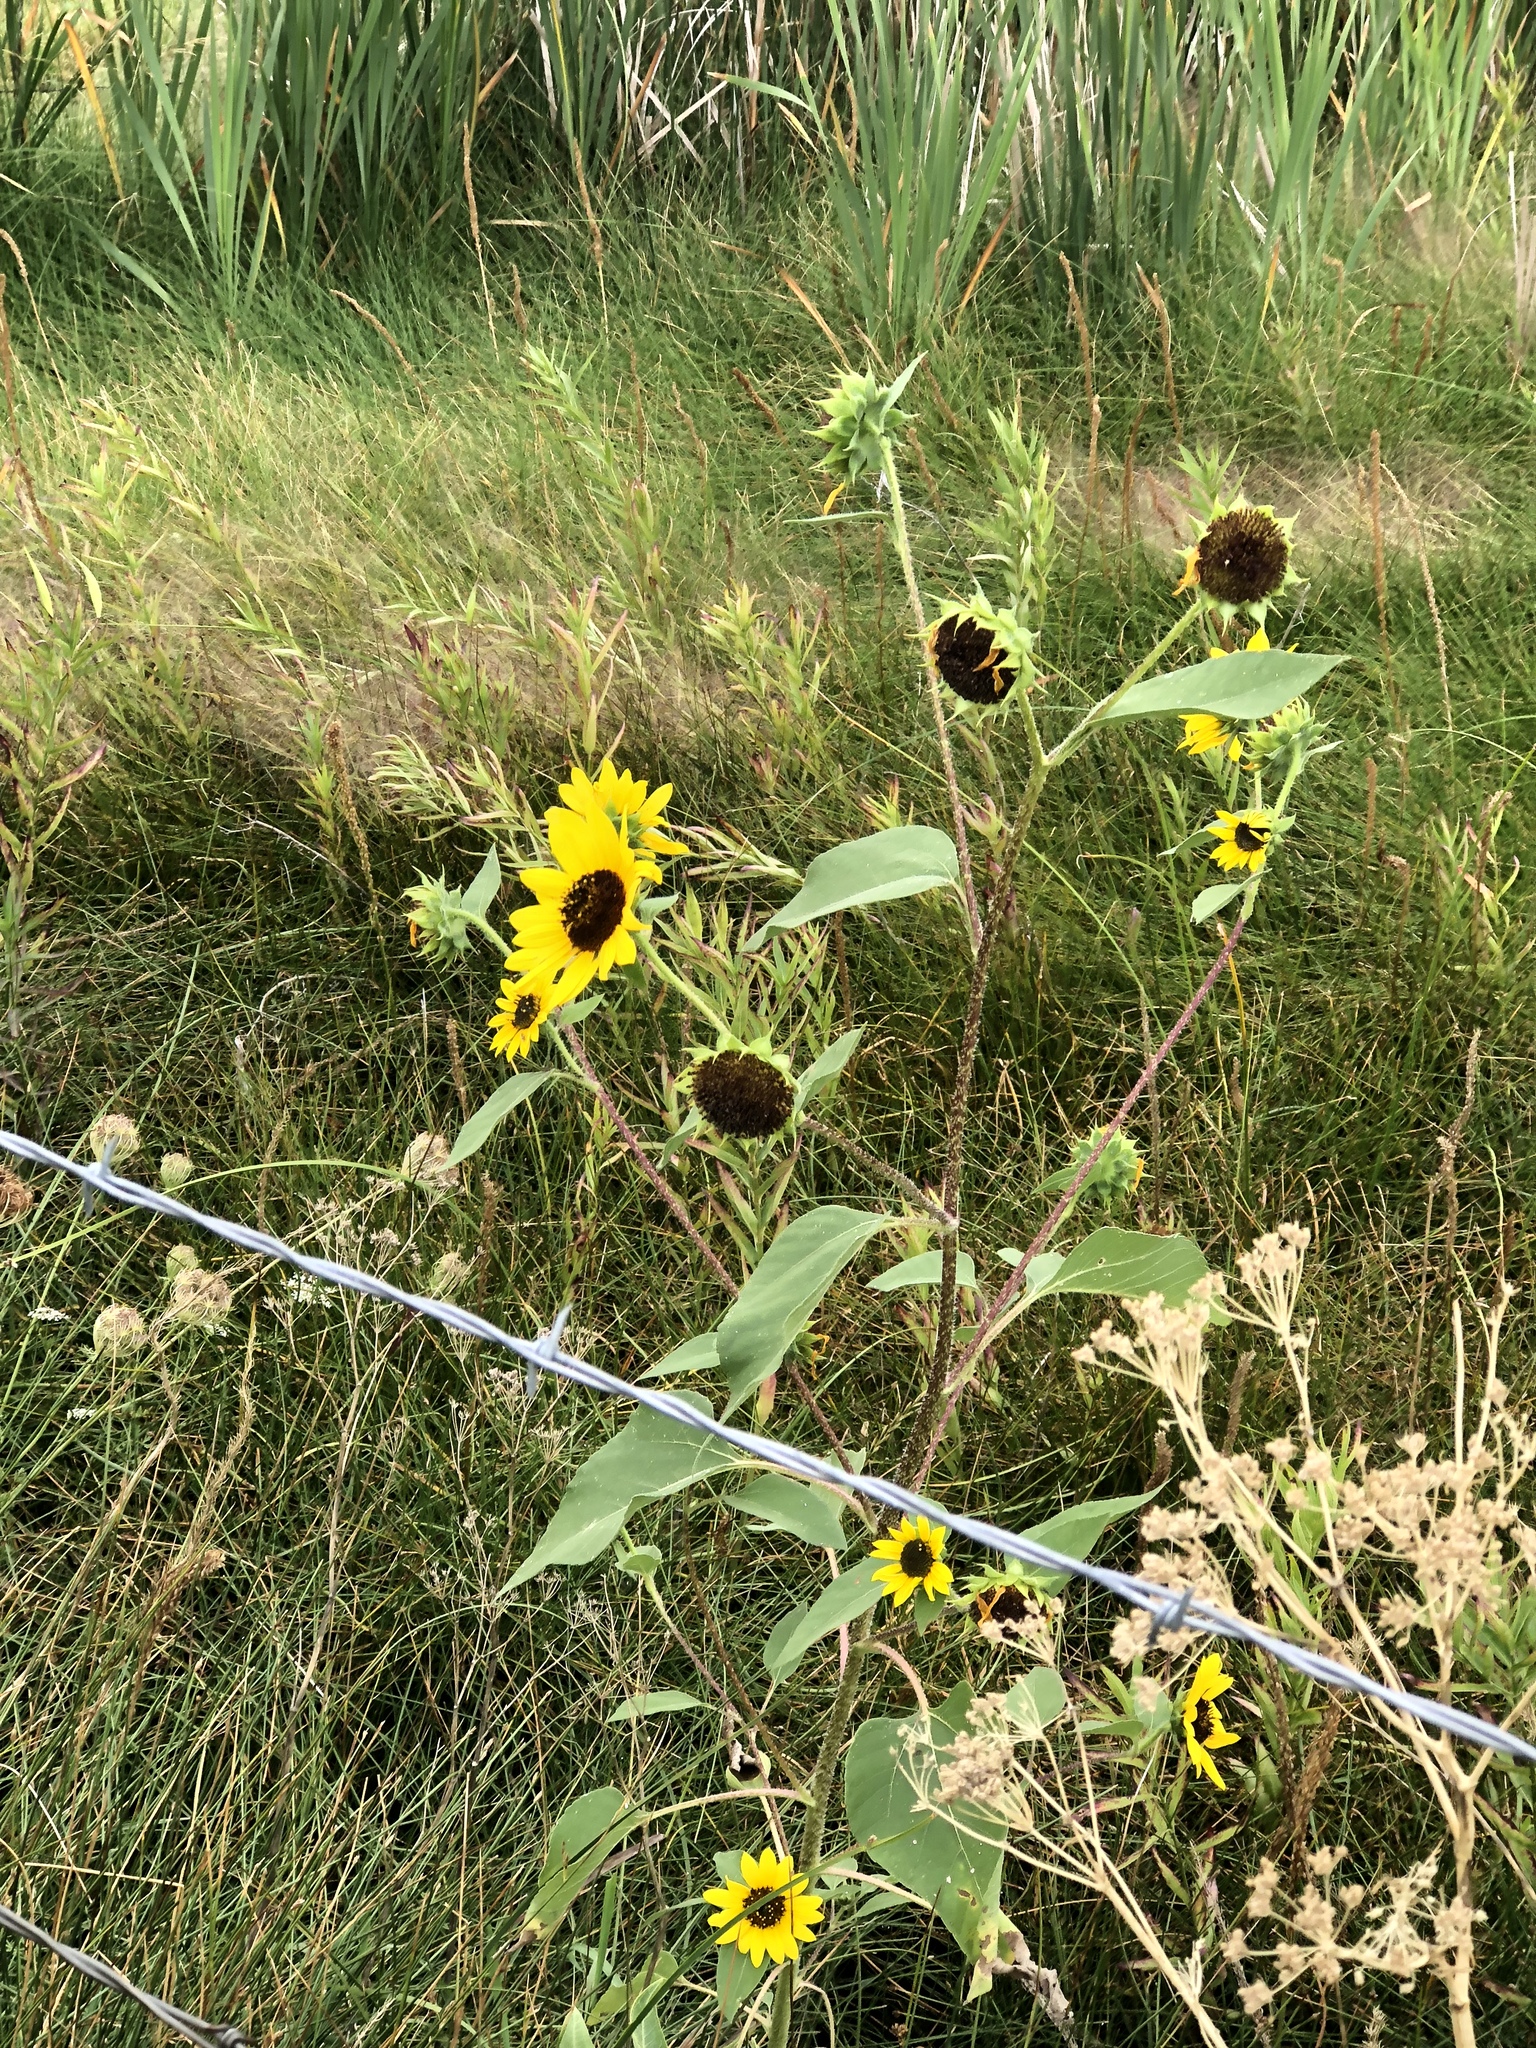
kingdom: Plantae
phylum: Tracheophyta
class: Magnoliopsida
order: Asterales
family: Asteraceae
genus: Helianthus
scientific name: Helianthus annuus
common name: Sunflower
